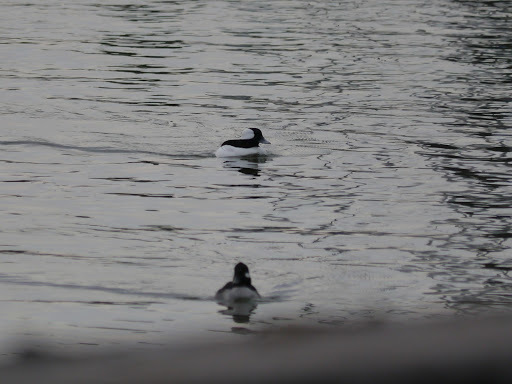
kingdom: Animalia
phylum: Chordata
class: Aves
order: Anseriformes
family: Anatidae
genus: Bucephala
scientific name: Bucephala albeola
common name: Bufflehead
